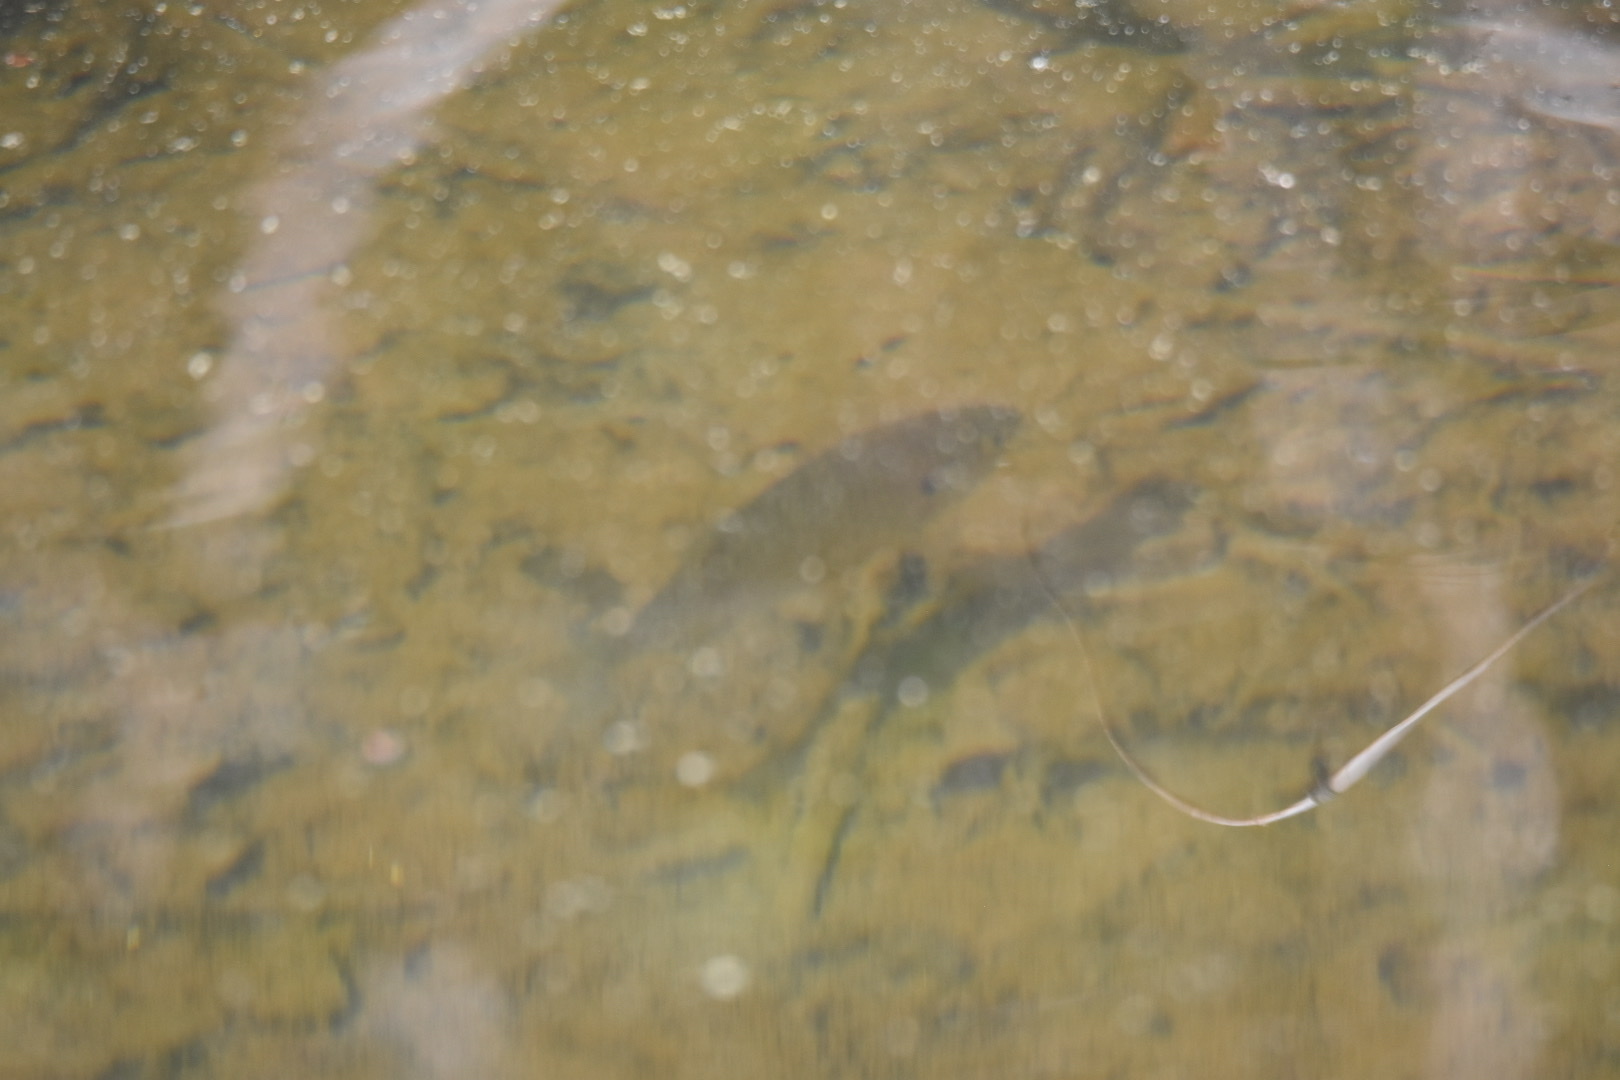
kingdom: Animalia
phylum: Chordata
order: Perciformes
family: Centrarchidae
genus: Lepomis
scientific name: Lepomis gibbosus
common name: Pumpkinseed
